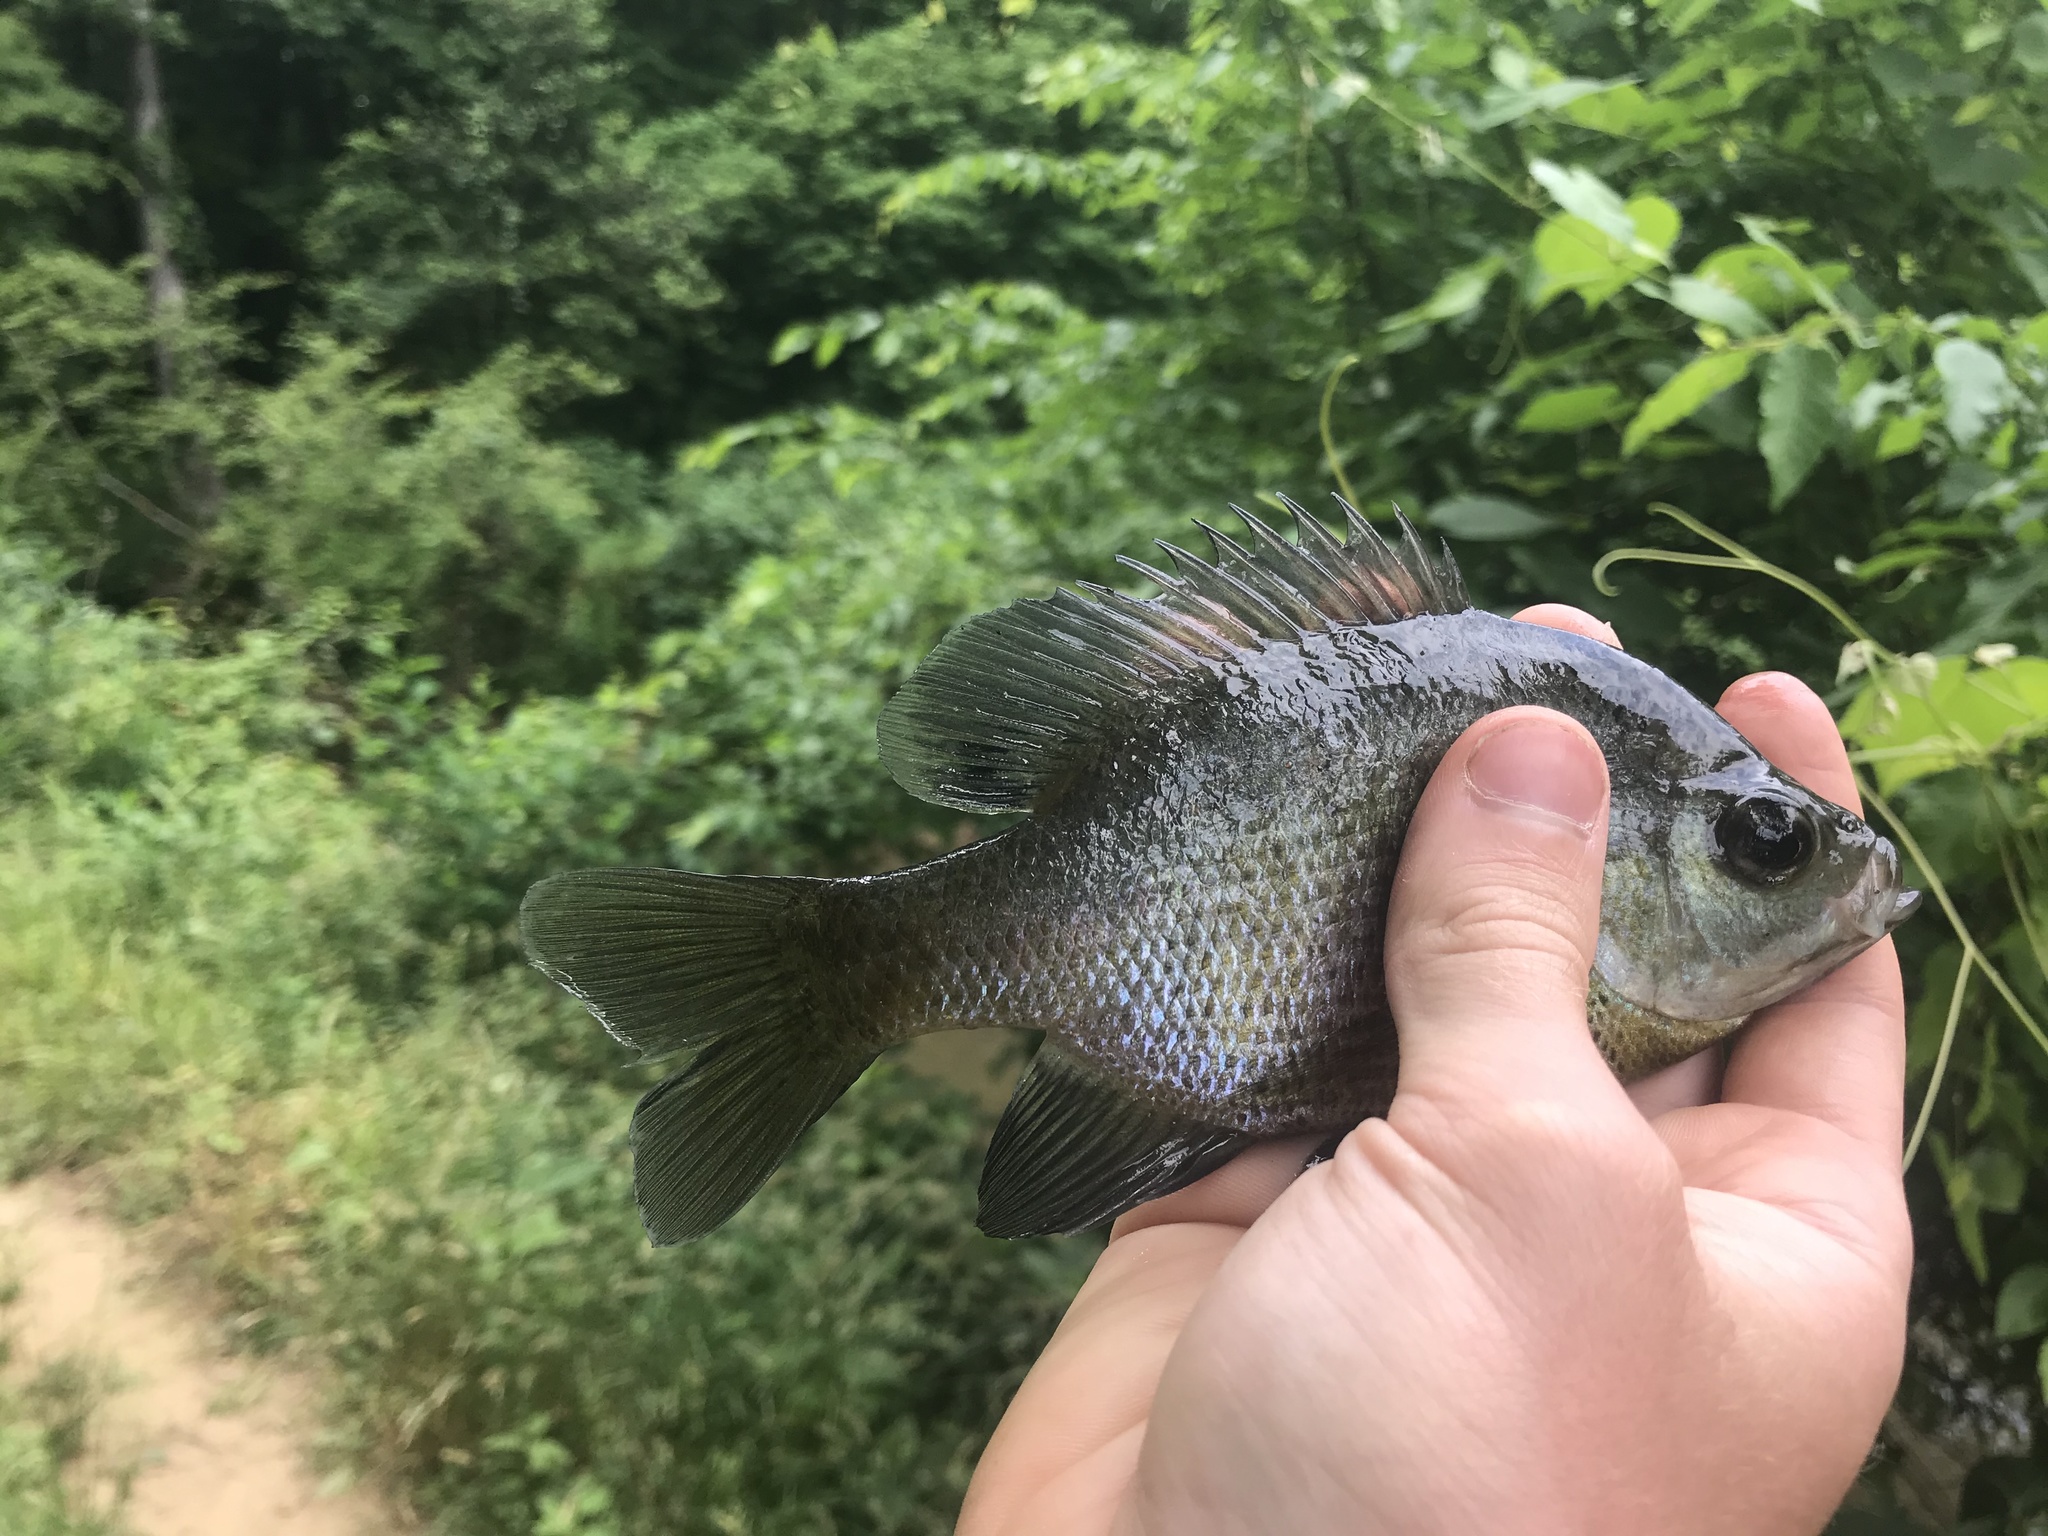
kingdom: Animalia
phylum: Chordata
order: Perciformes
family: Centrarchidae
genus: Lepomis
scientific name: Lepomis macrochirus
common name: Bluegill
